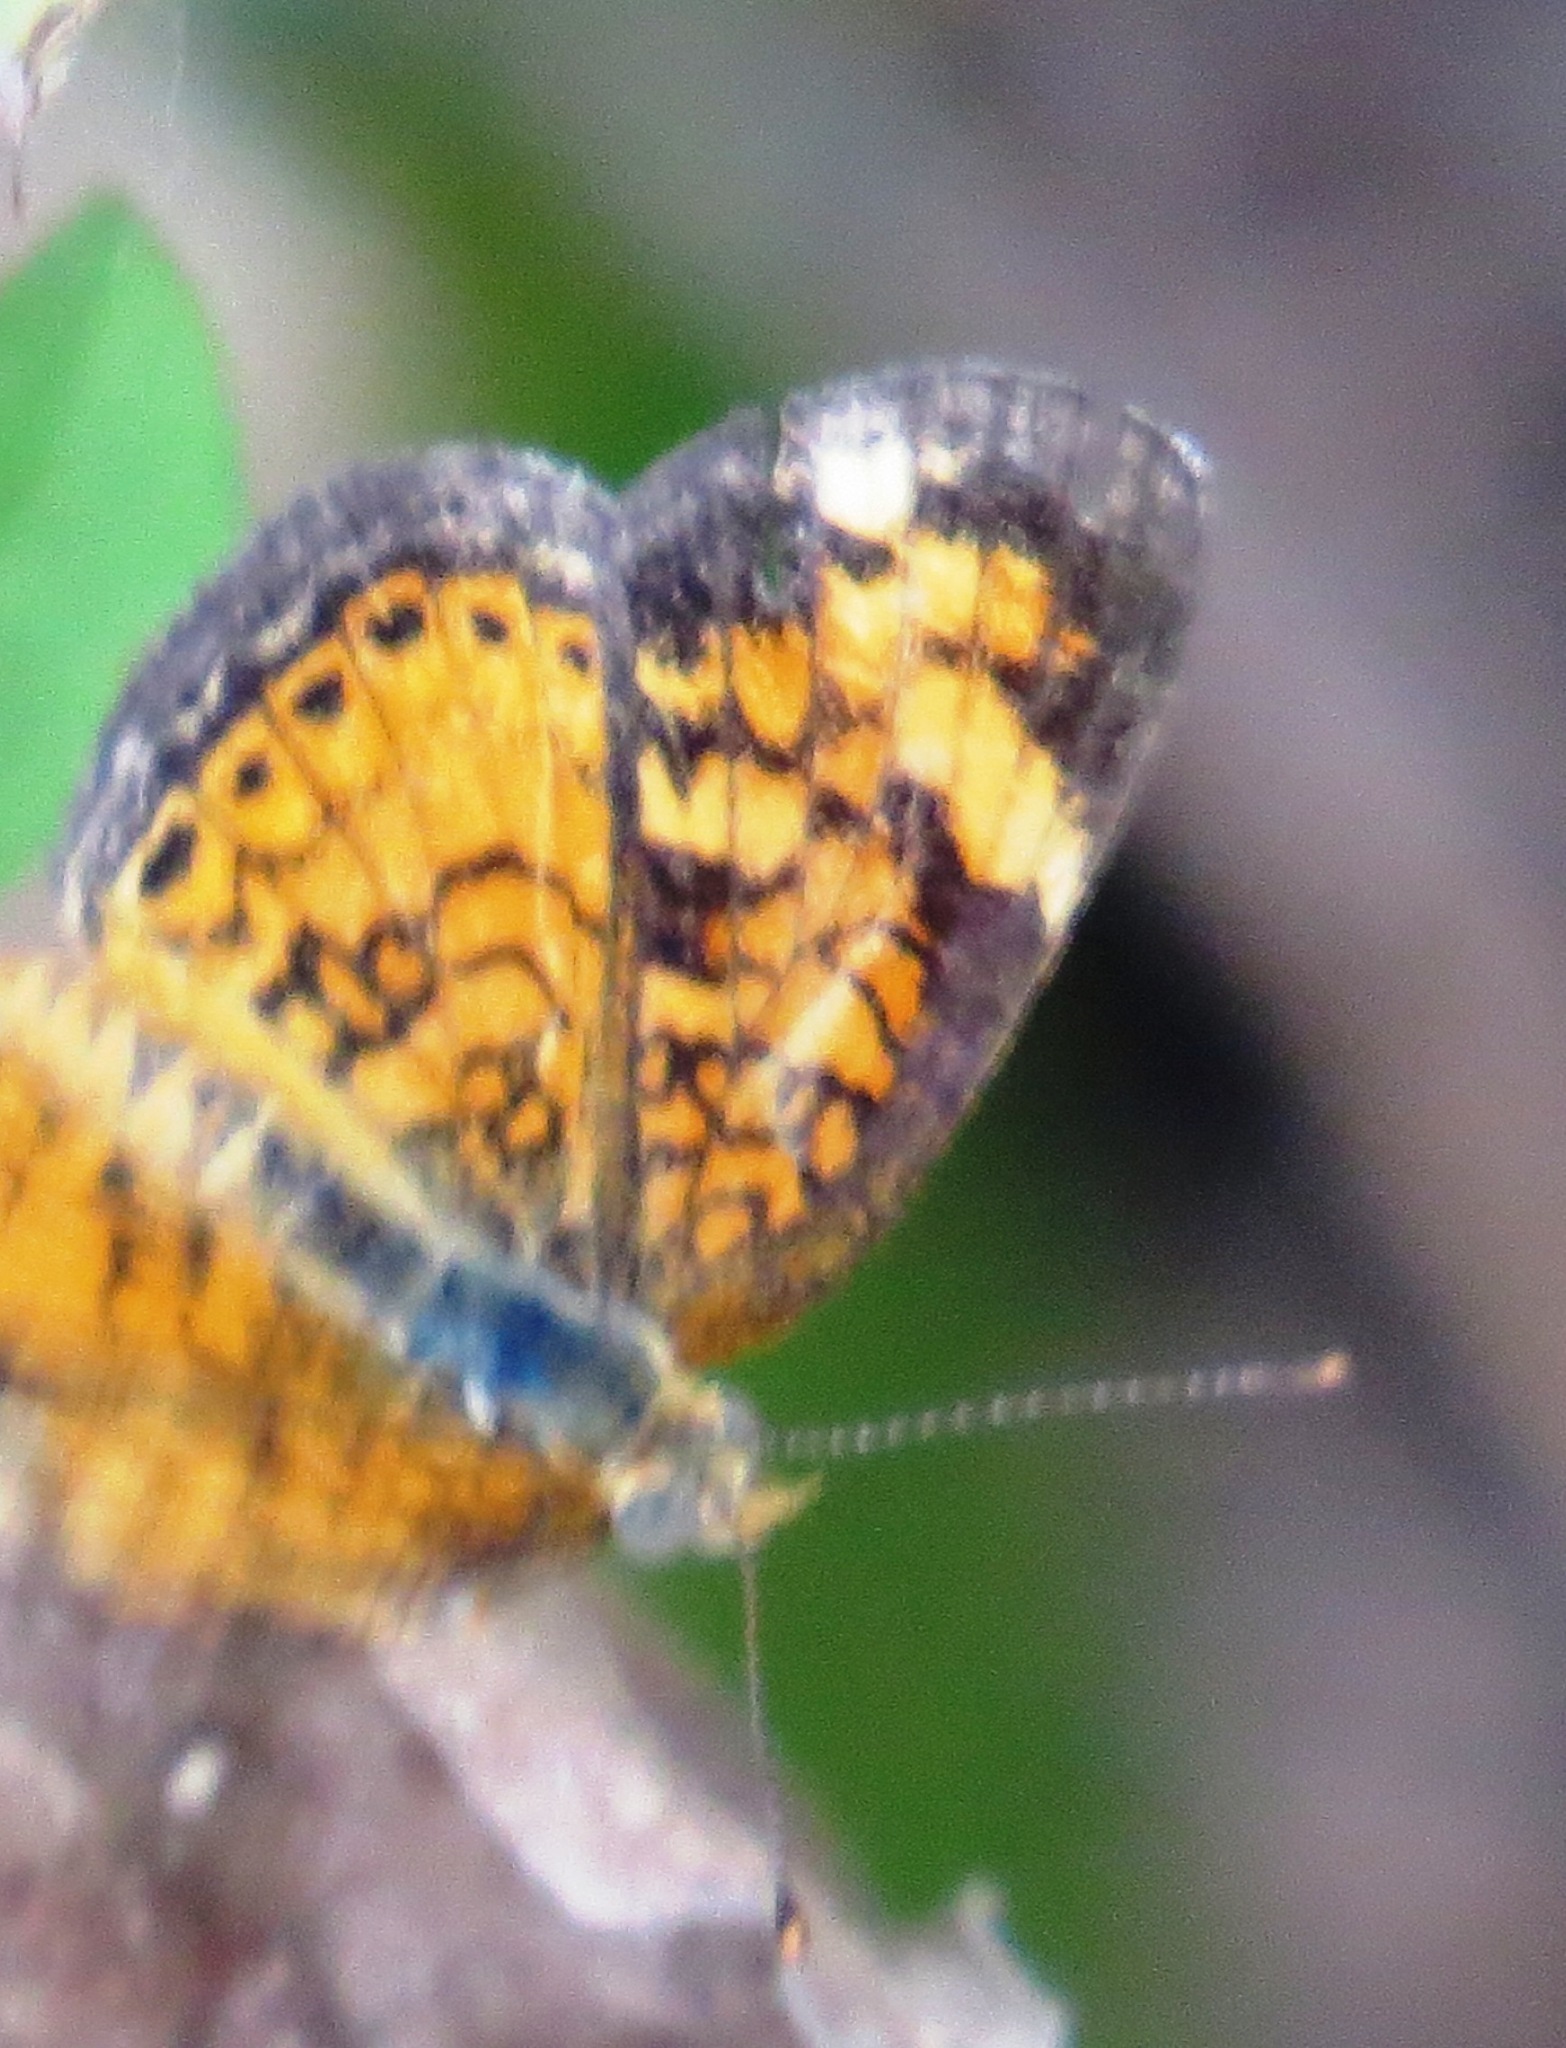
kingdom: Animalia
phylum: Arthropoda
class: Insecta
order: Lepidoptera
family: Nymphalidae
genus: Phyciodes
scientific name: Phyciodes tharos
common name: Pearl crescent
